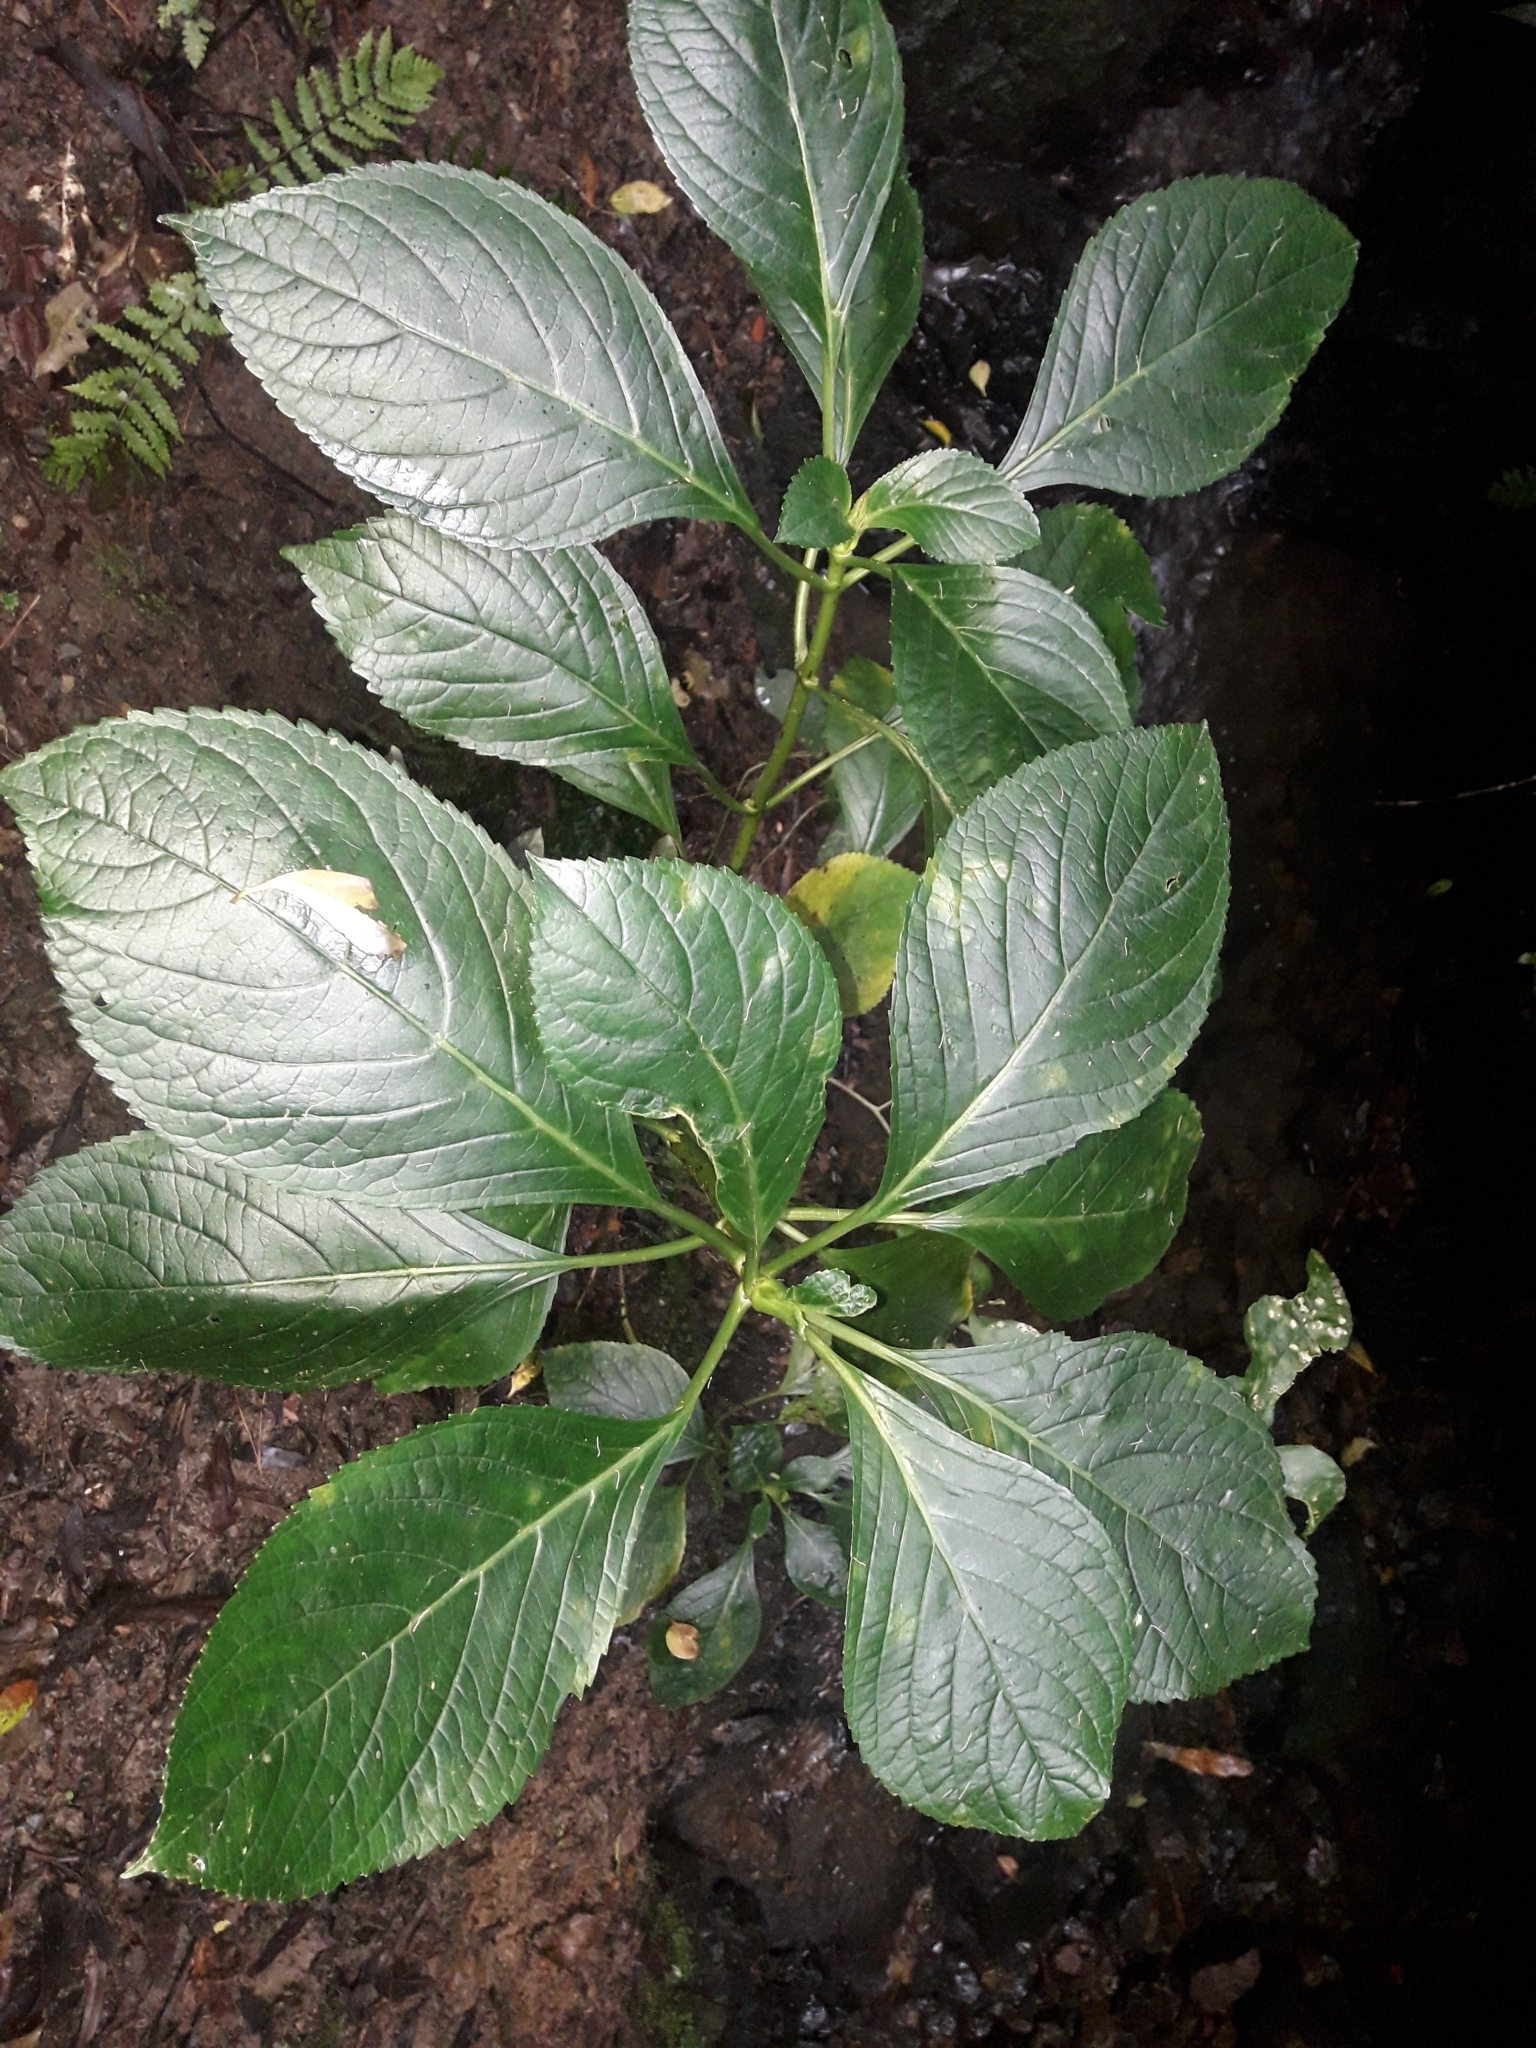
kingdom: Plantae
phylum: Tracheophyta
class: Magnoliopsida
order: Cornales
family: Hydrangeaceae
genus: Hydrangea
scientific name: Hydrangea macrophylla
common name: Hydrangea
